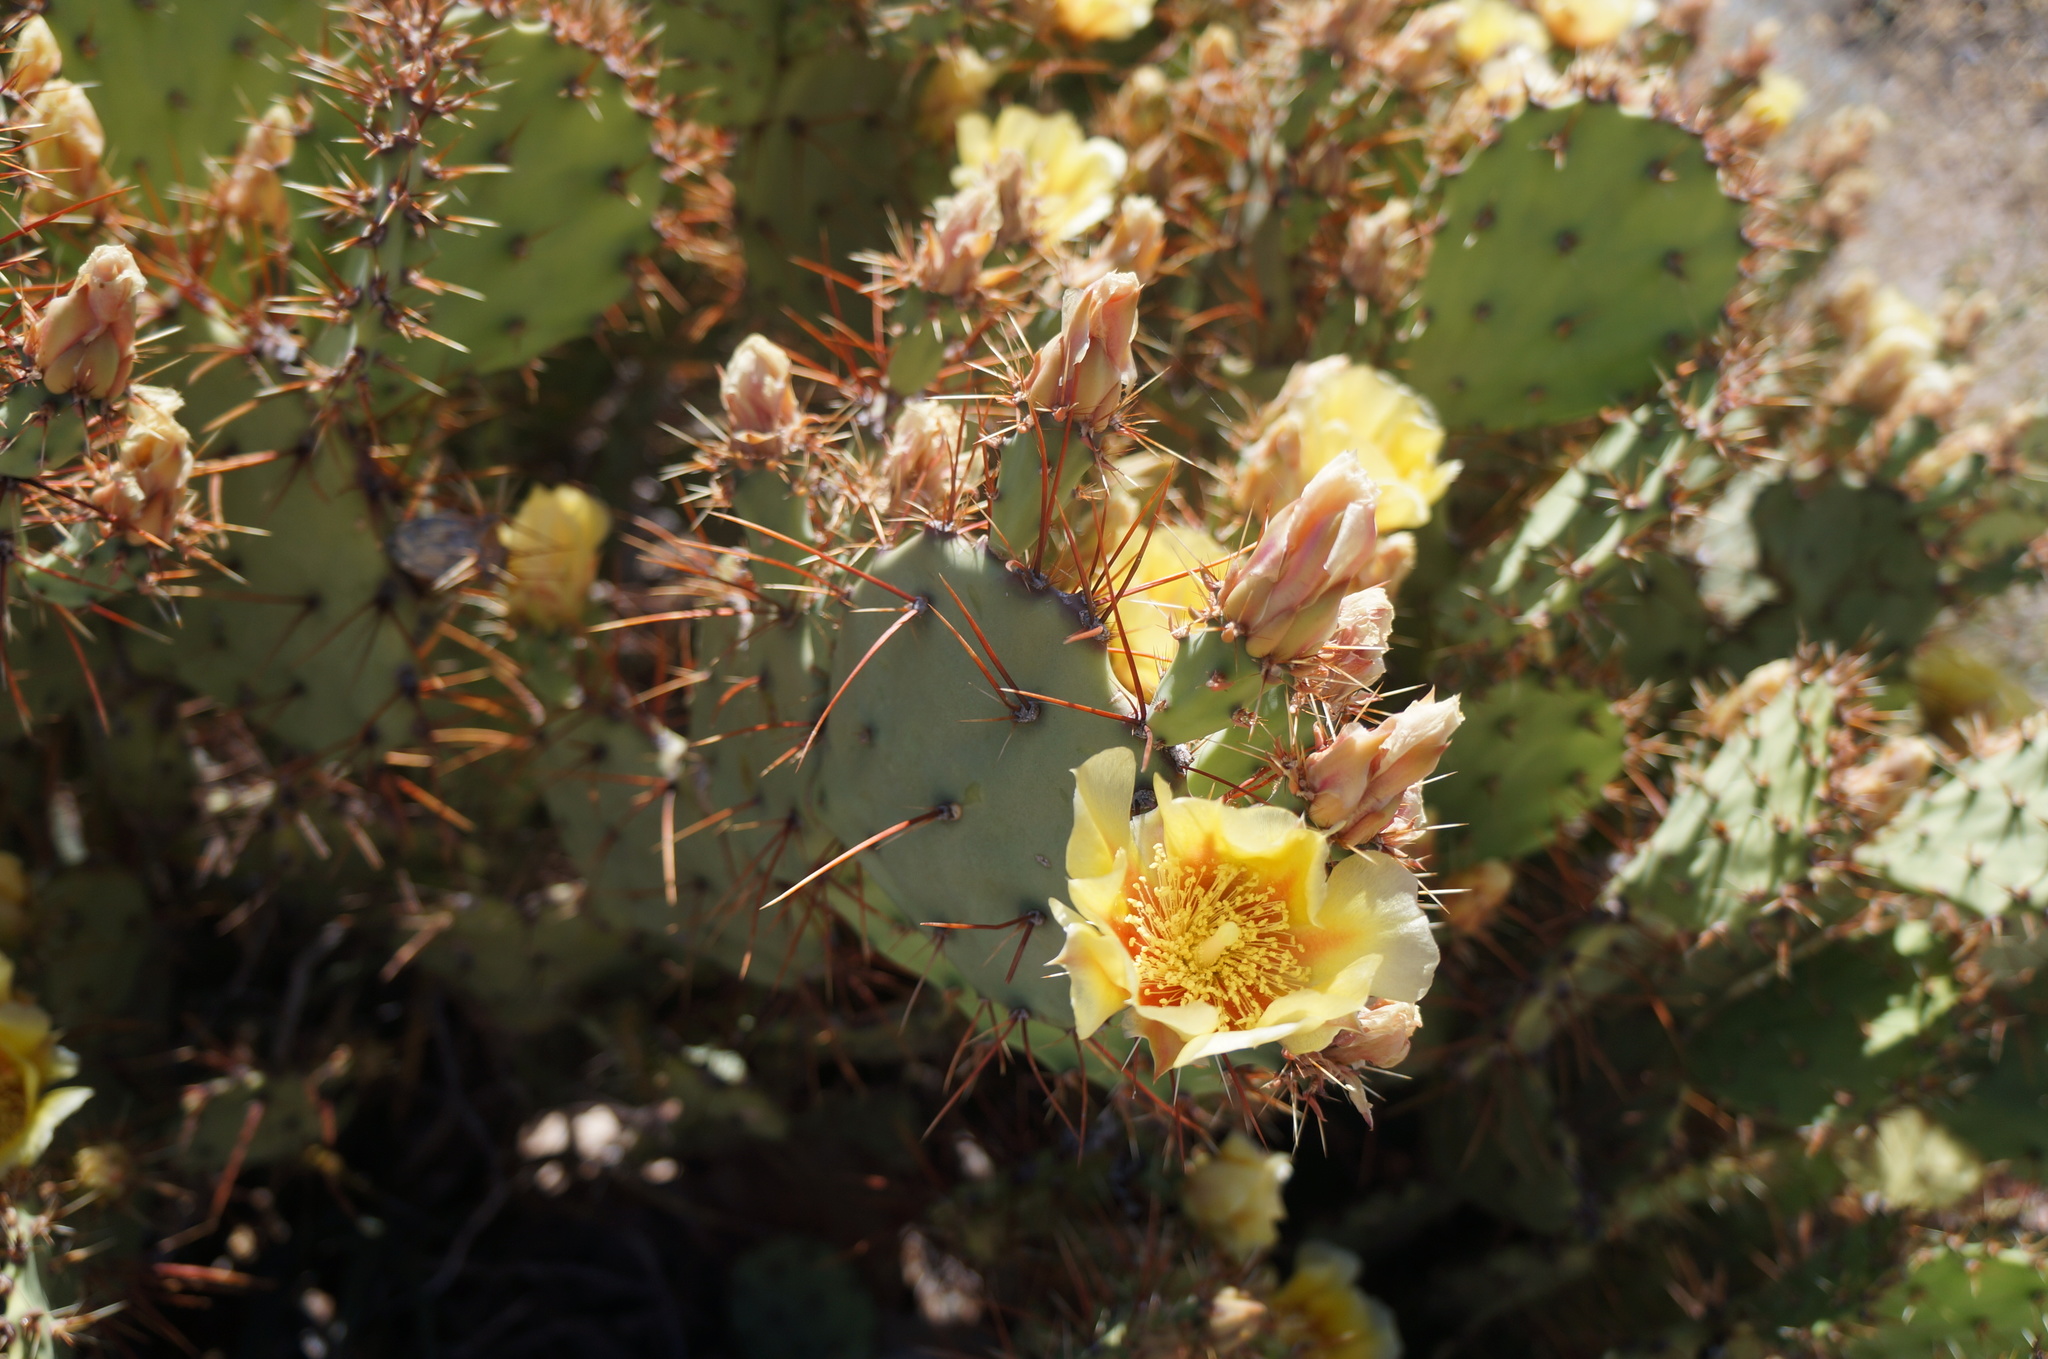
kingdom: Plantae
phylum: Tracheophyta
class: Magnoliopsida
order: Caryophyllales
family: Cactaceae
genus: Opuntia
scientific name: Opuntia spinosibacca
